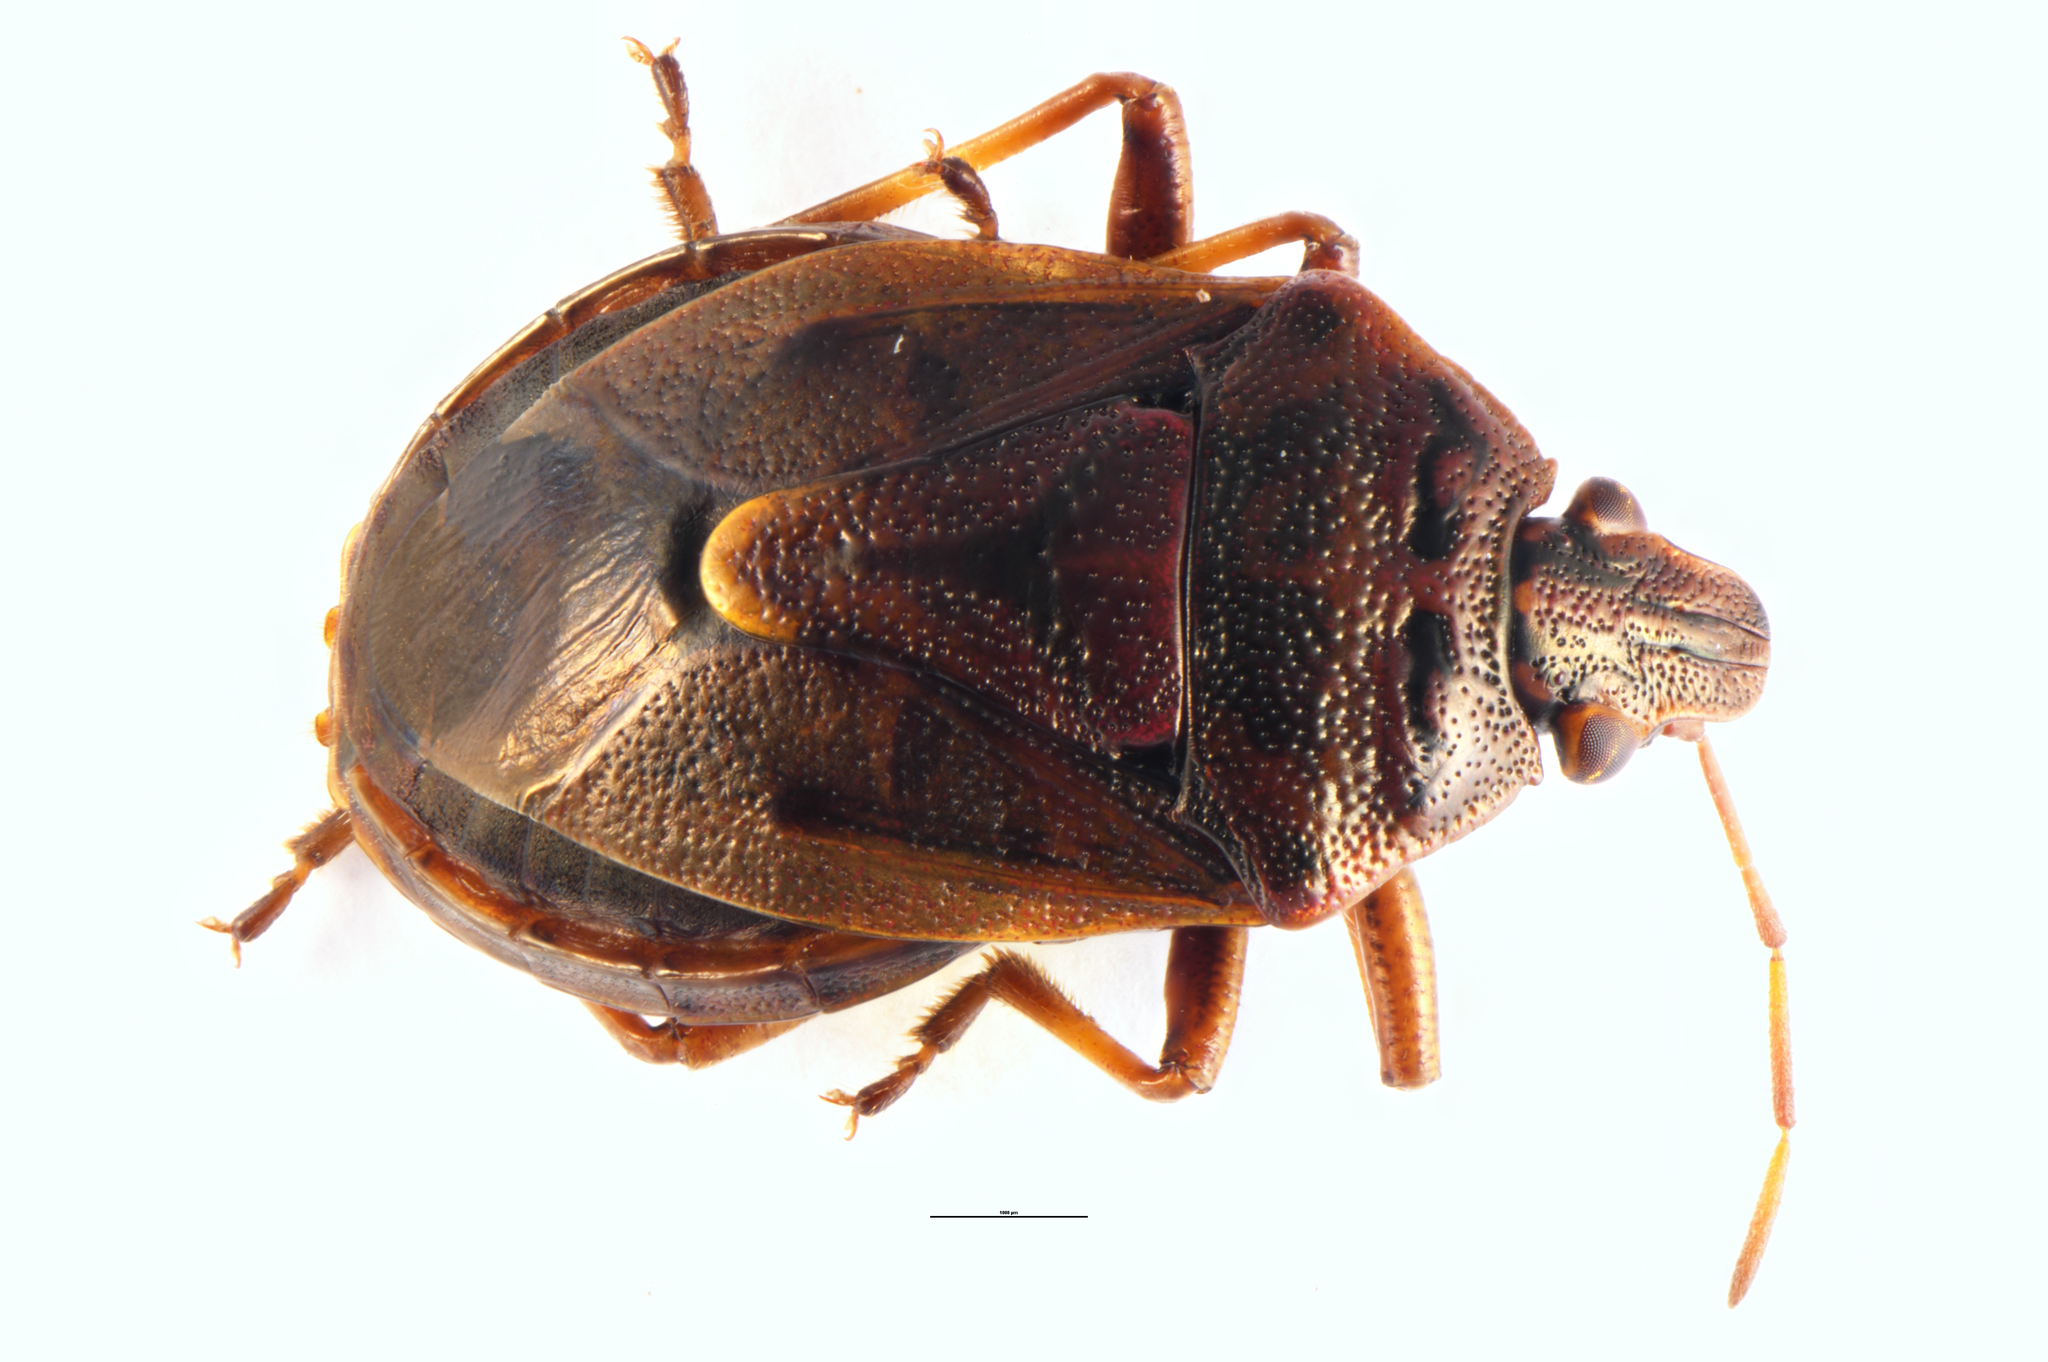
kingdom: Animalia
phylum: Arthropoda
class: Insecta
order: Hemiptera
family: Pentatomidae
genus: Cermatulus
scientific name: Cermatulus nasalis
